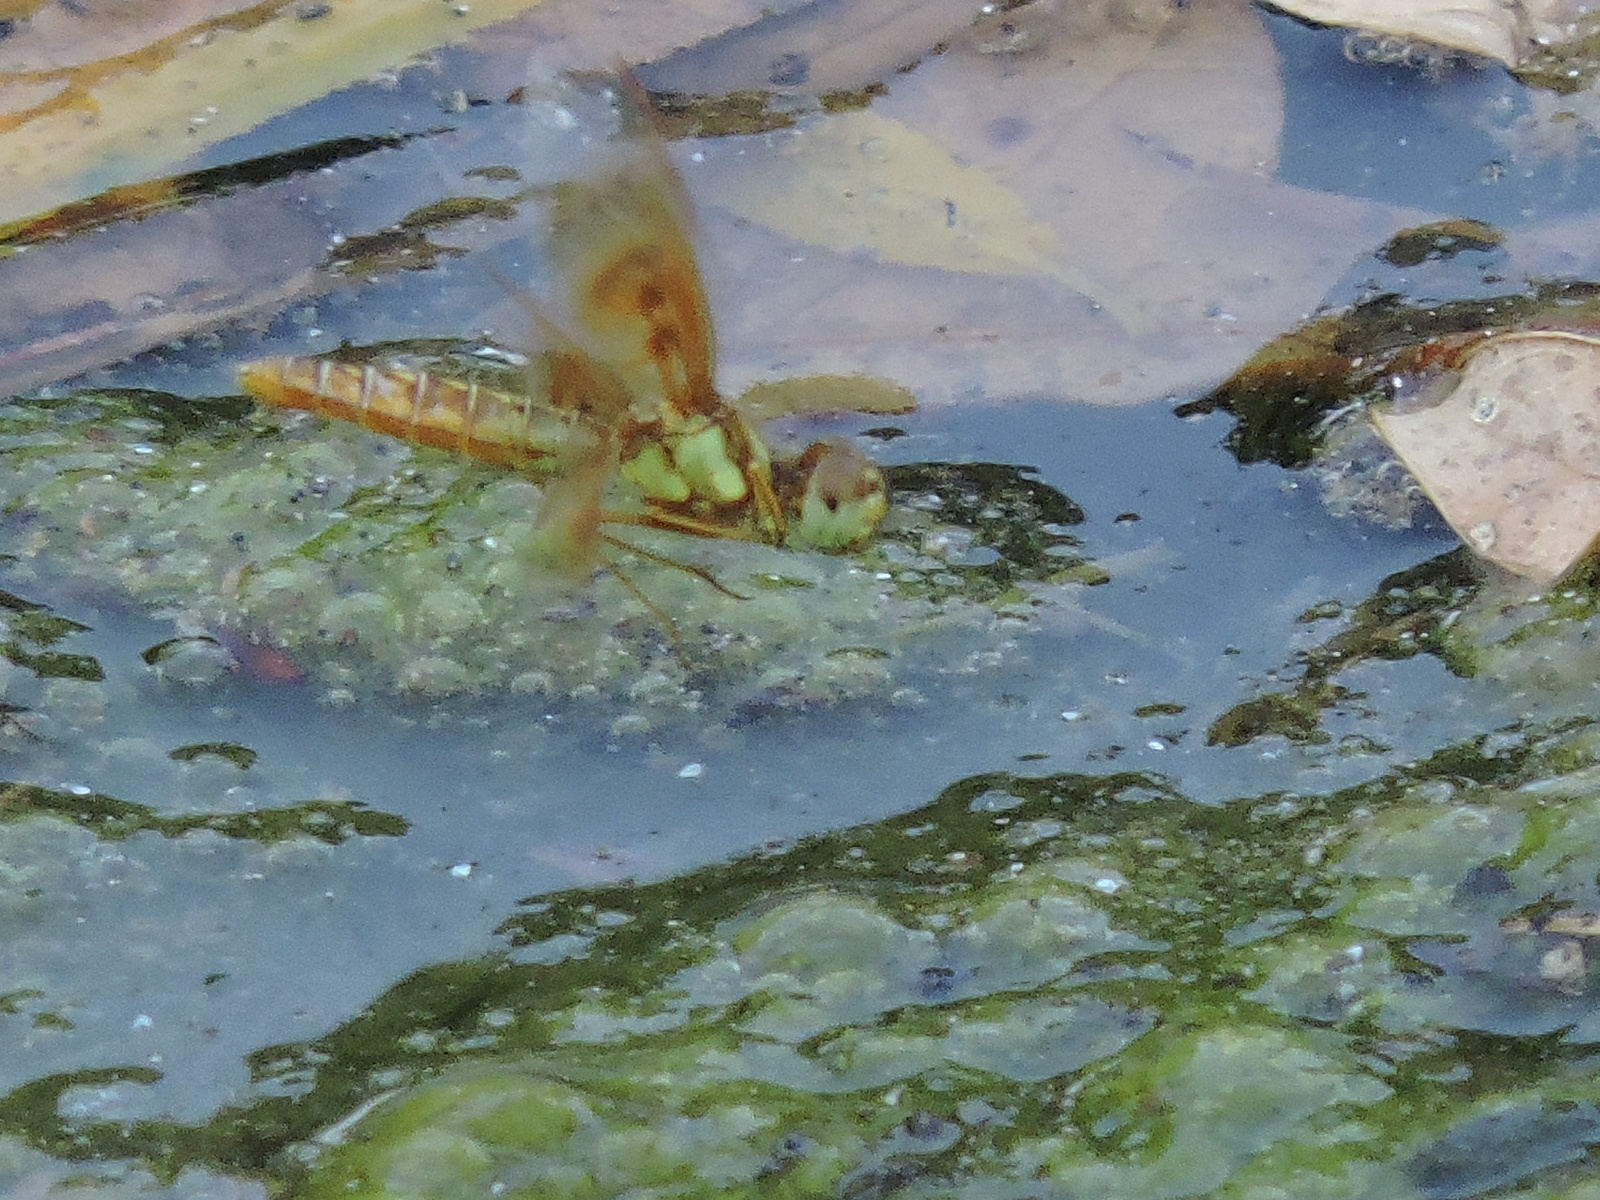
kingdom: Animalia
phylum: Arthropoda
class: Insecta
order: Odonata
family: Libellulidae
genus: Perithemis
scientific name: Perithemis tenera
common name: Eastern amberwing
